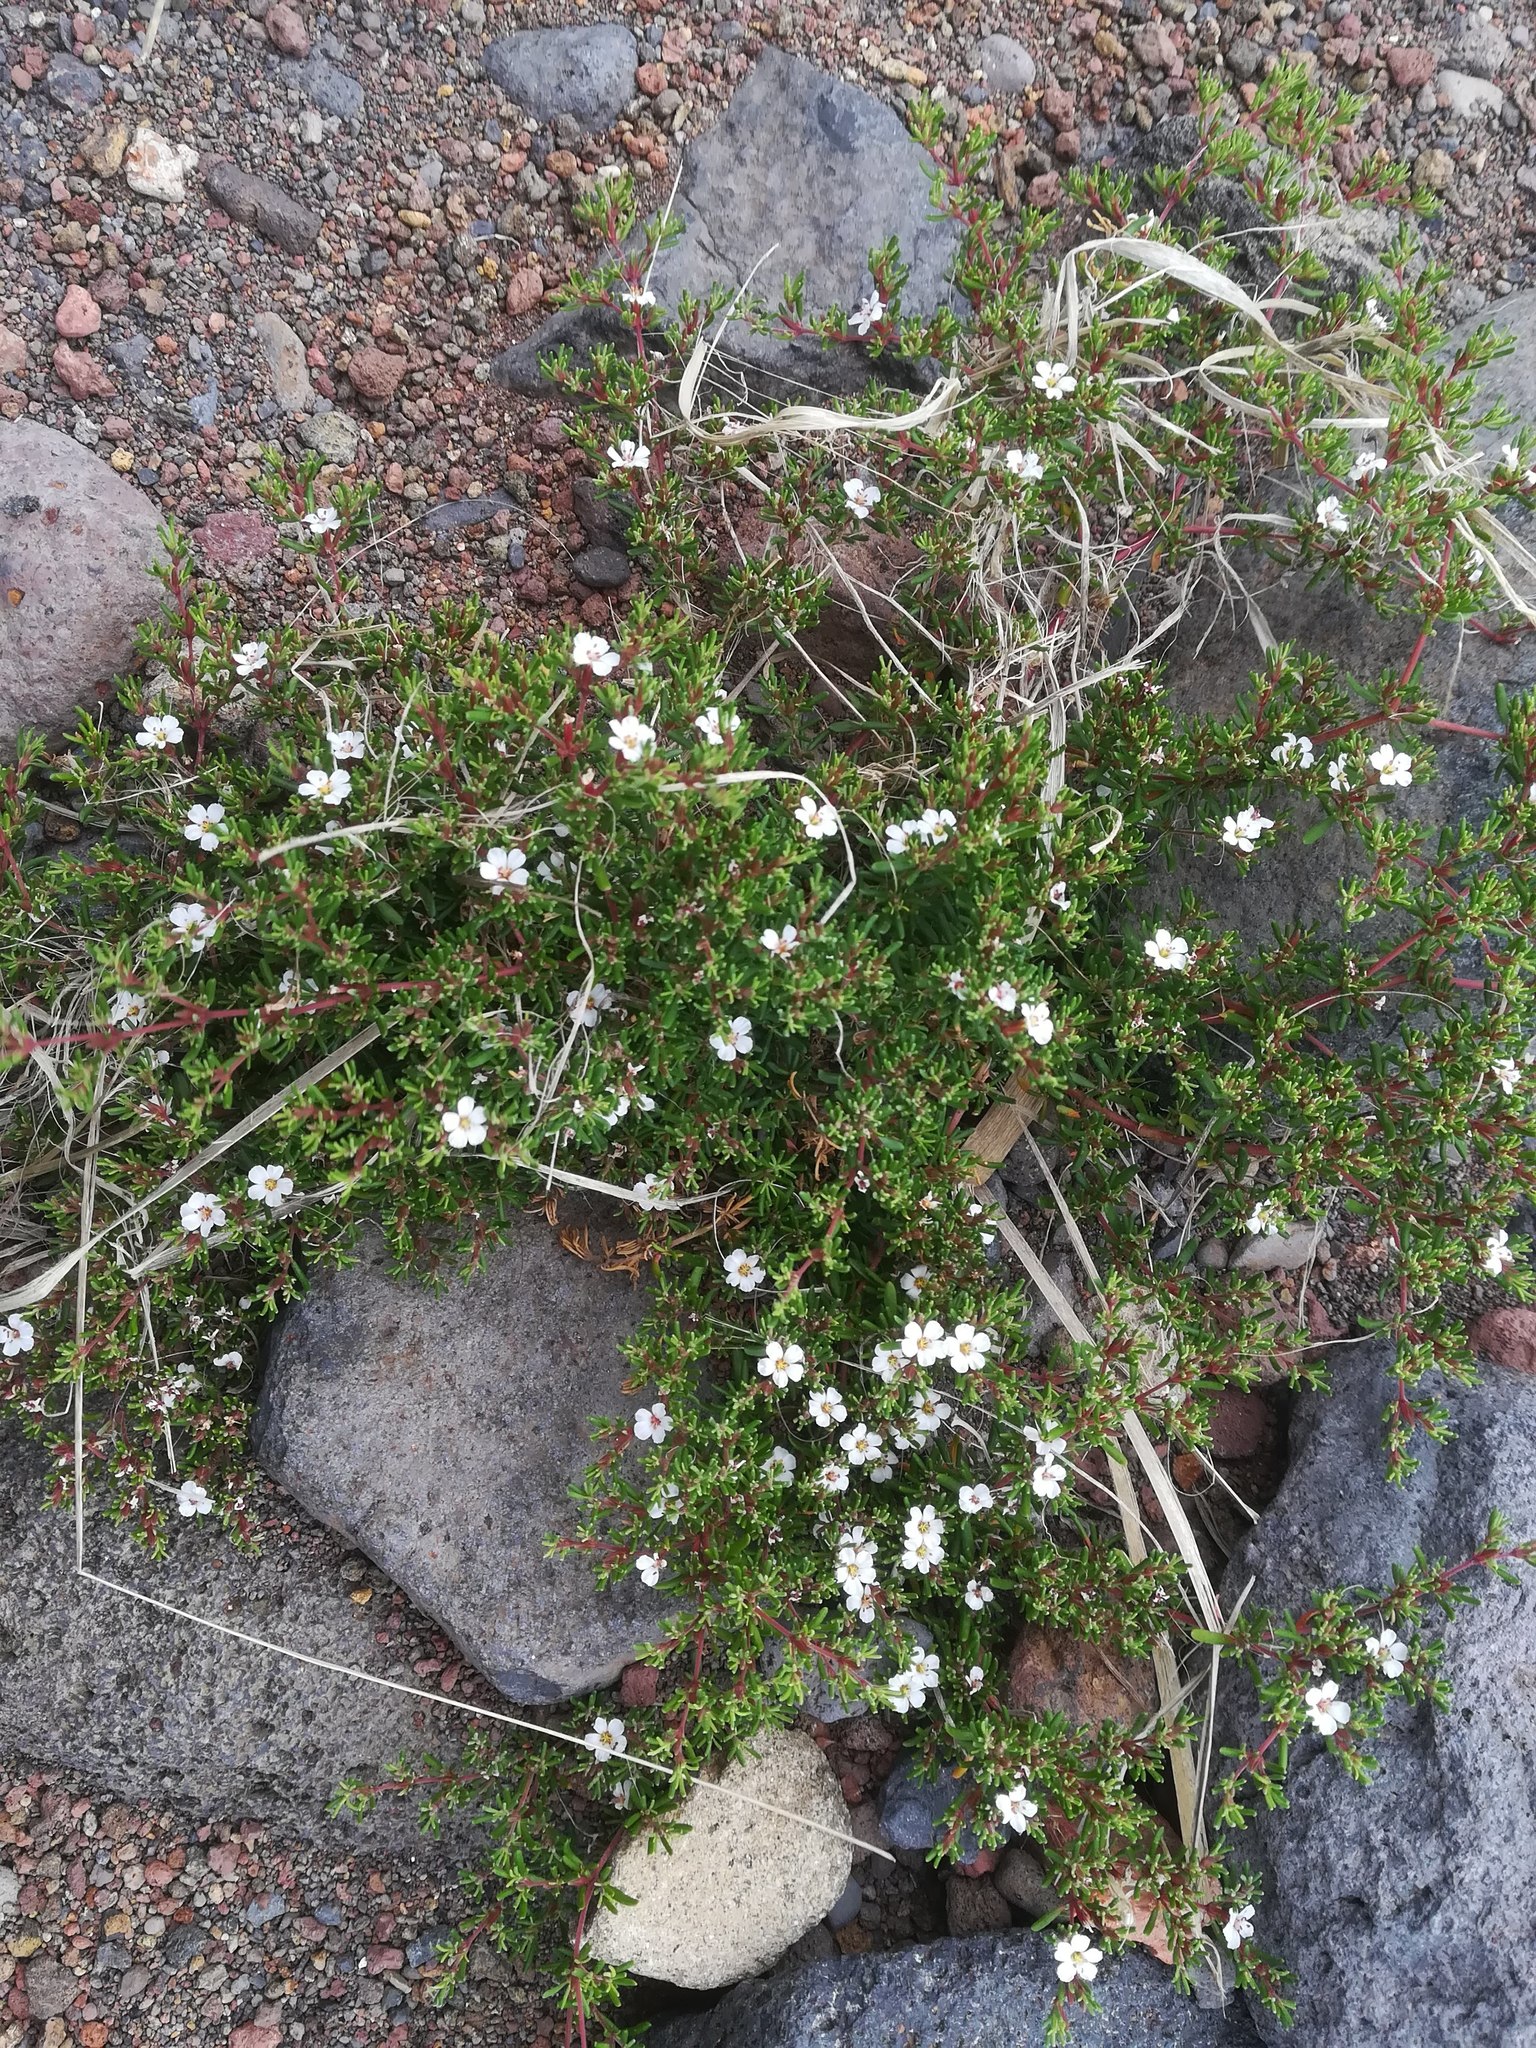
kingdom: Plantae
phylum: Tracheophyta
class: Magnoliopsida
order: Caryophyllales
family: Frankeniaceae
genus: Frankenia
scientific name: Frankenia ericifolia
